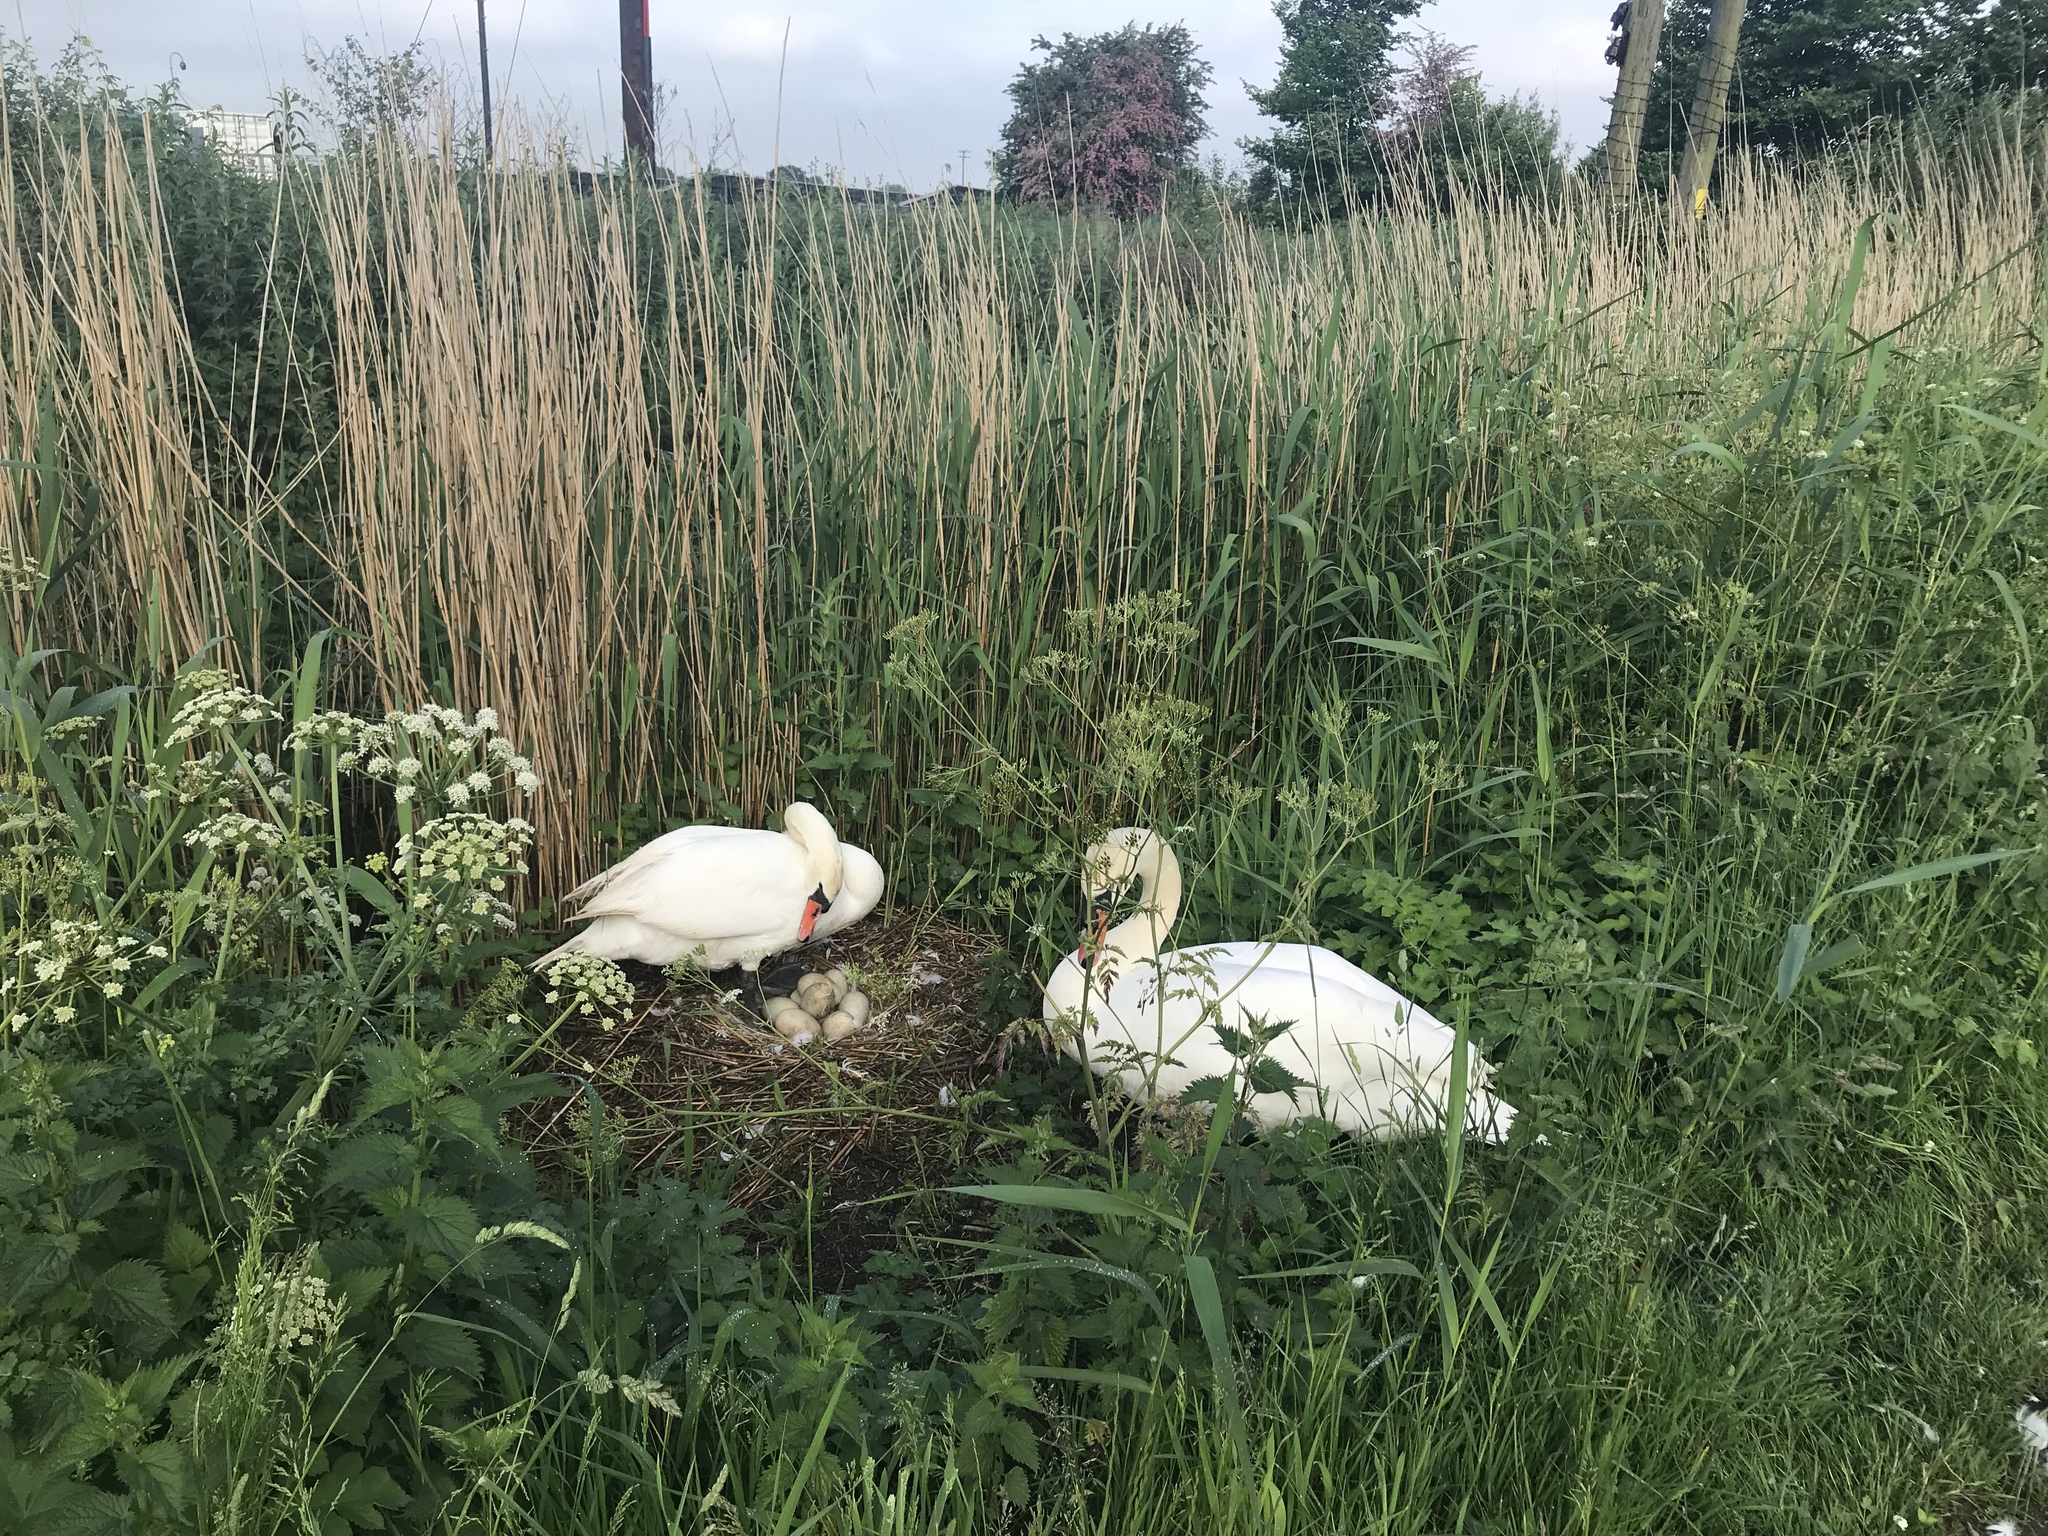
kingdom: Animalia
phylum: Chordata
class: Aves
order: Anseriformes
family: Anatidae
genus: Cygnus
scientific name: Cygnus olor
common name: Mute swan
